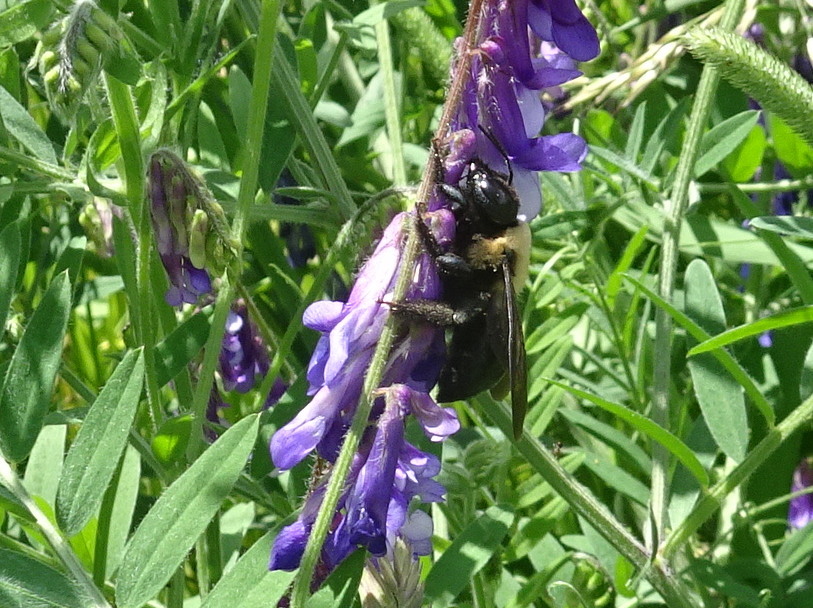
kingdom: Animalia
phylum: Arthropoda
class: Insecta
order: Hymenoptera
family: Apidae
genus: Xylocopa
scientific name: Xylocopa virginica
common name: Carpenter bee
